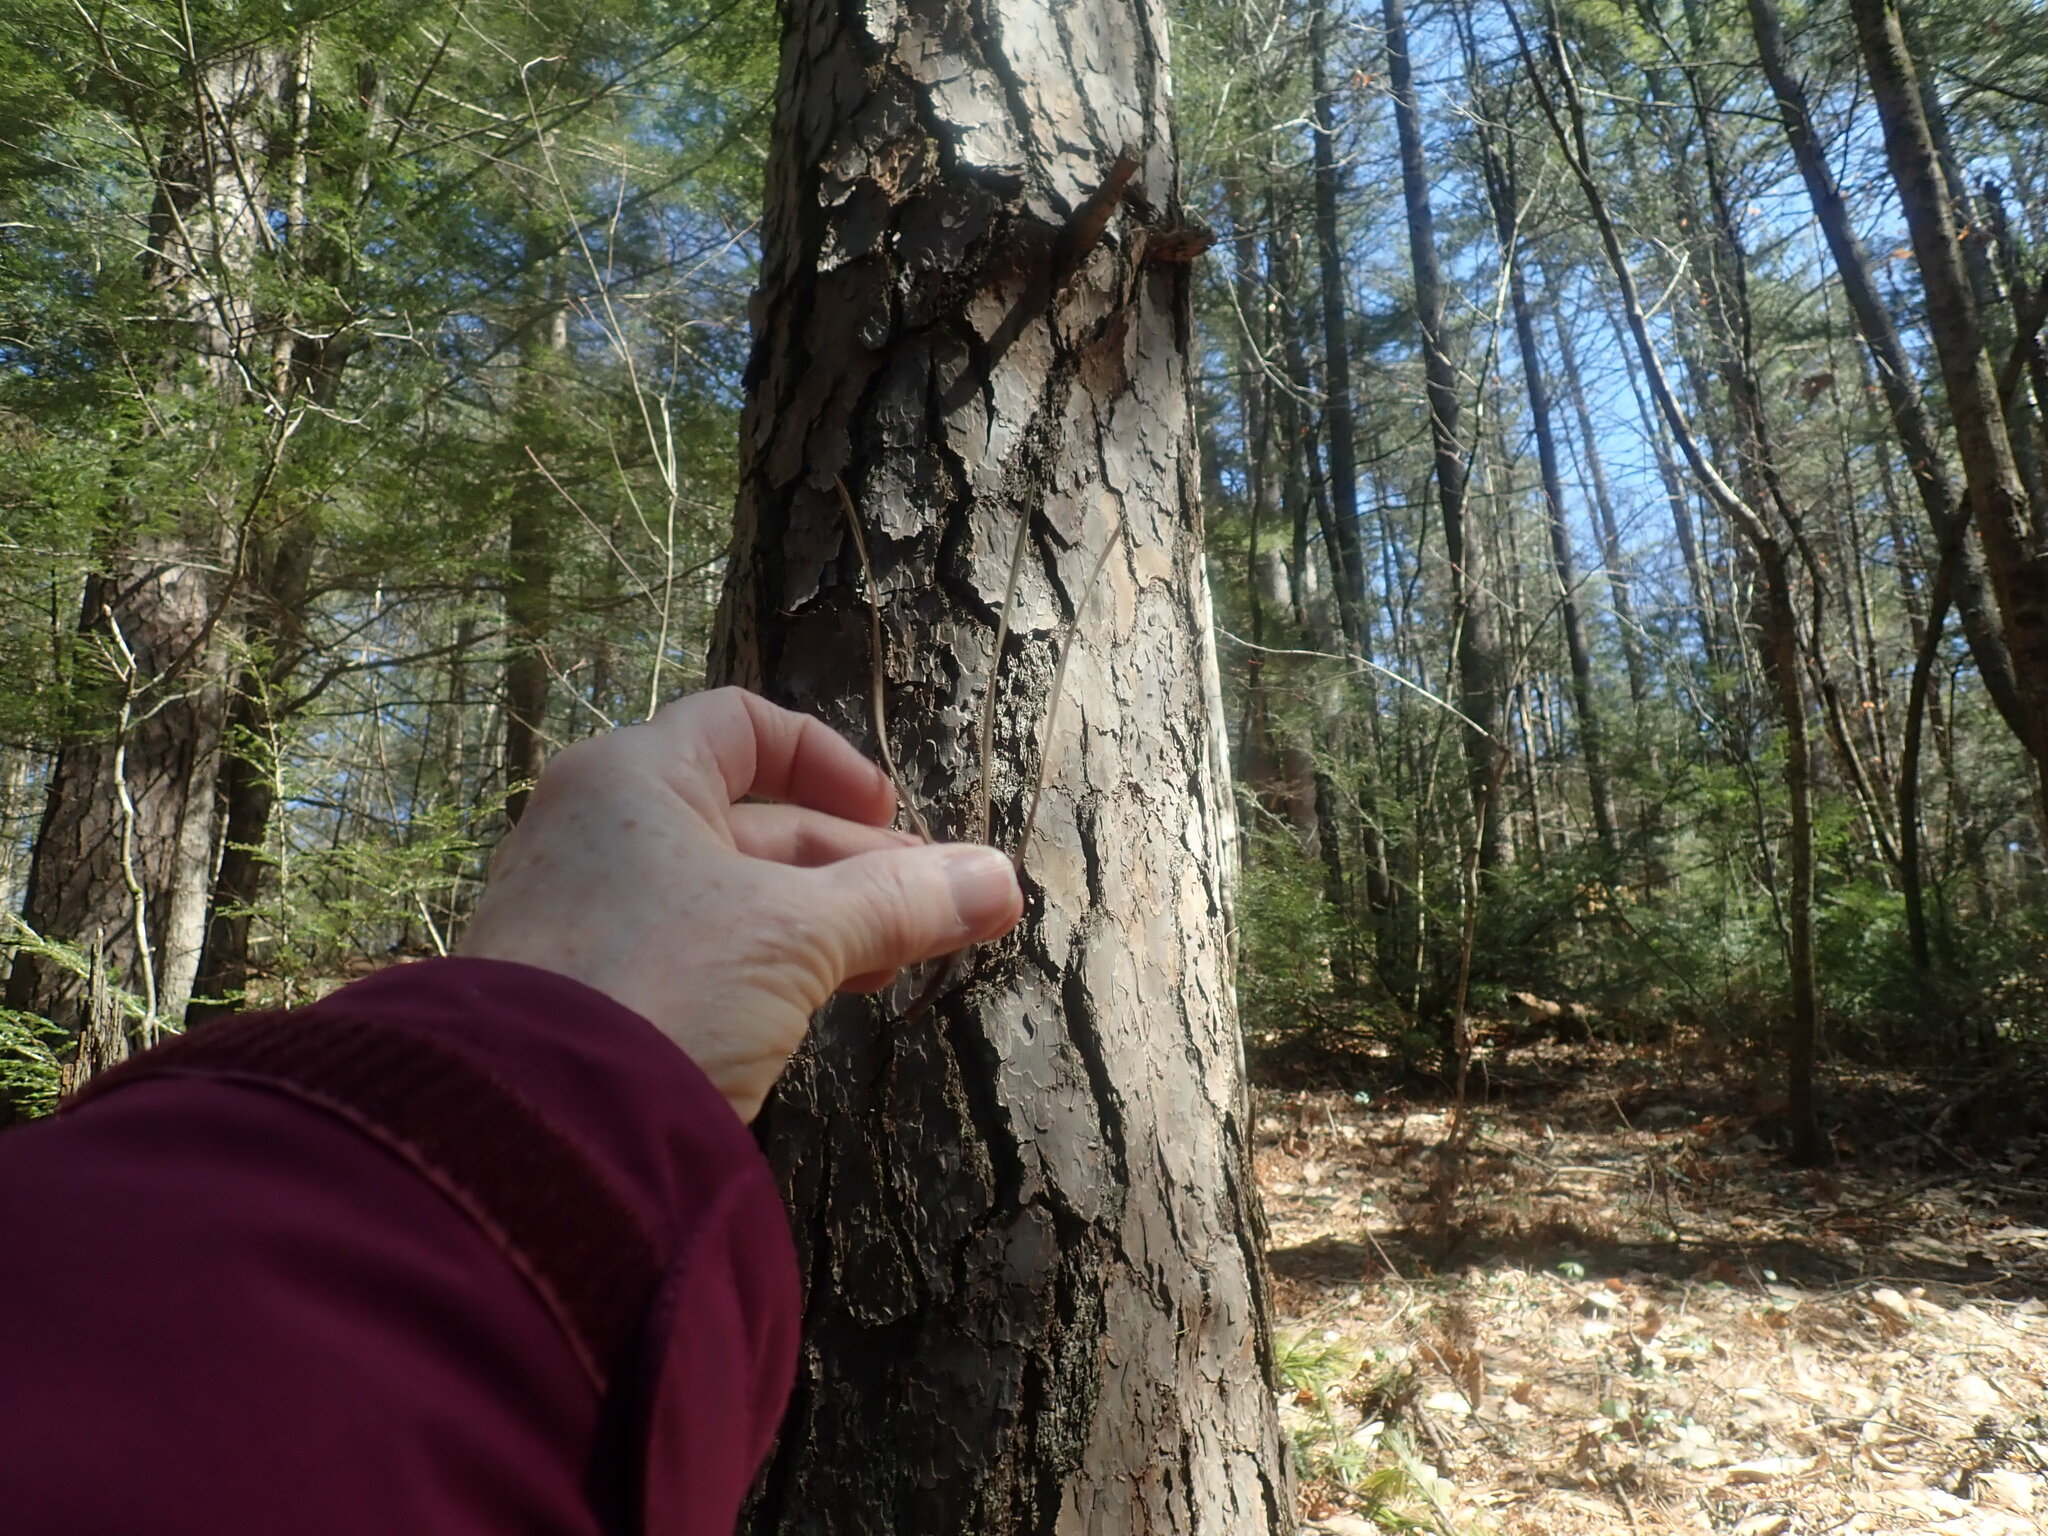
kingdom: Plantae
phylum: Tracheophyta
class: Pinopsida
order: Pinales
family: Pinaceae
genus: Pinus
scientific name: Pinus rigida
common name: Pitch pine
